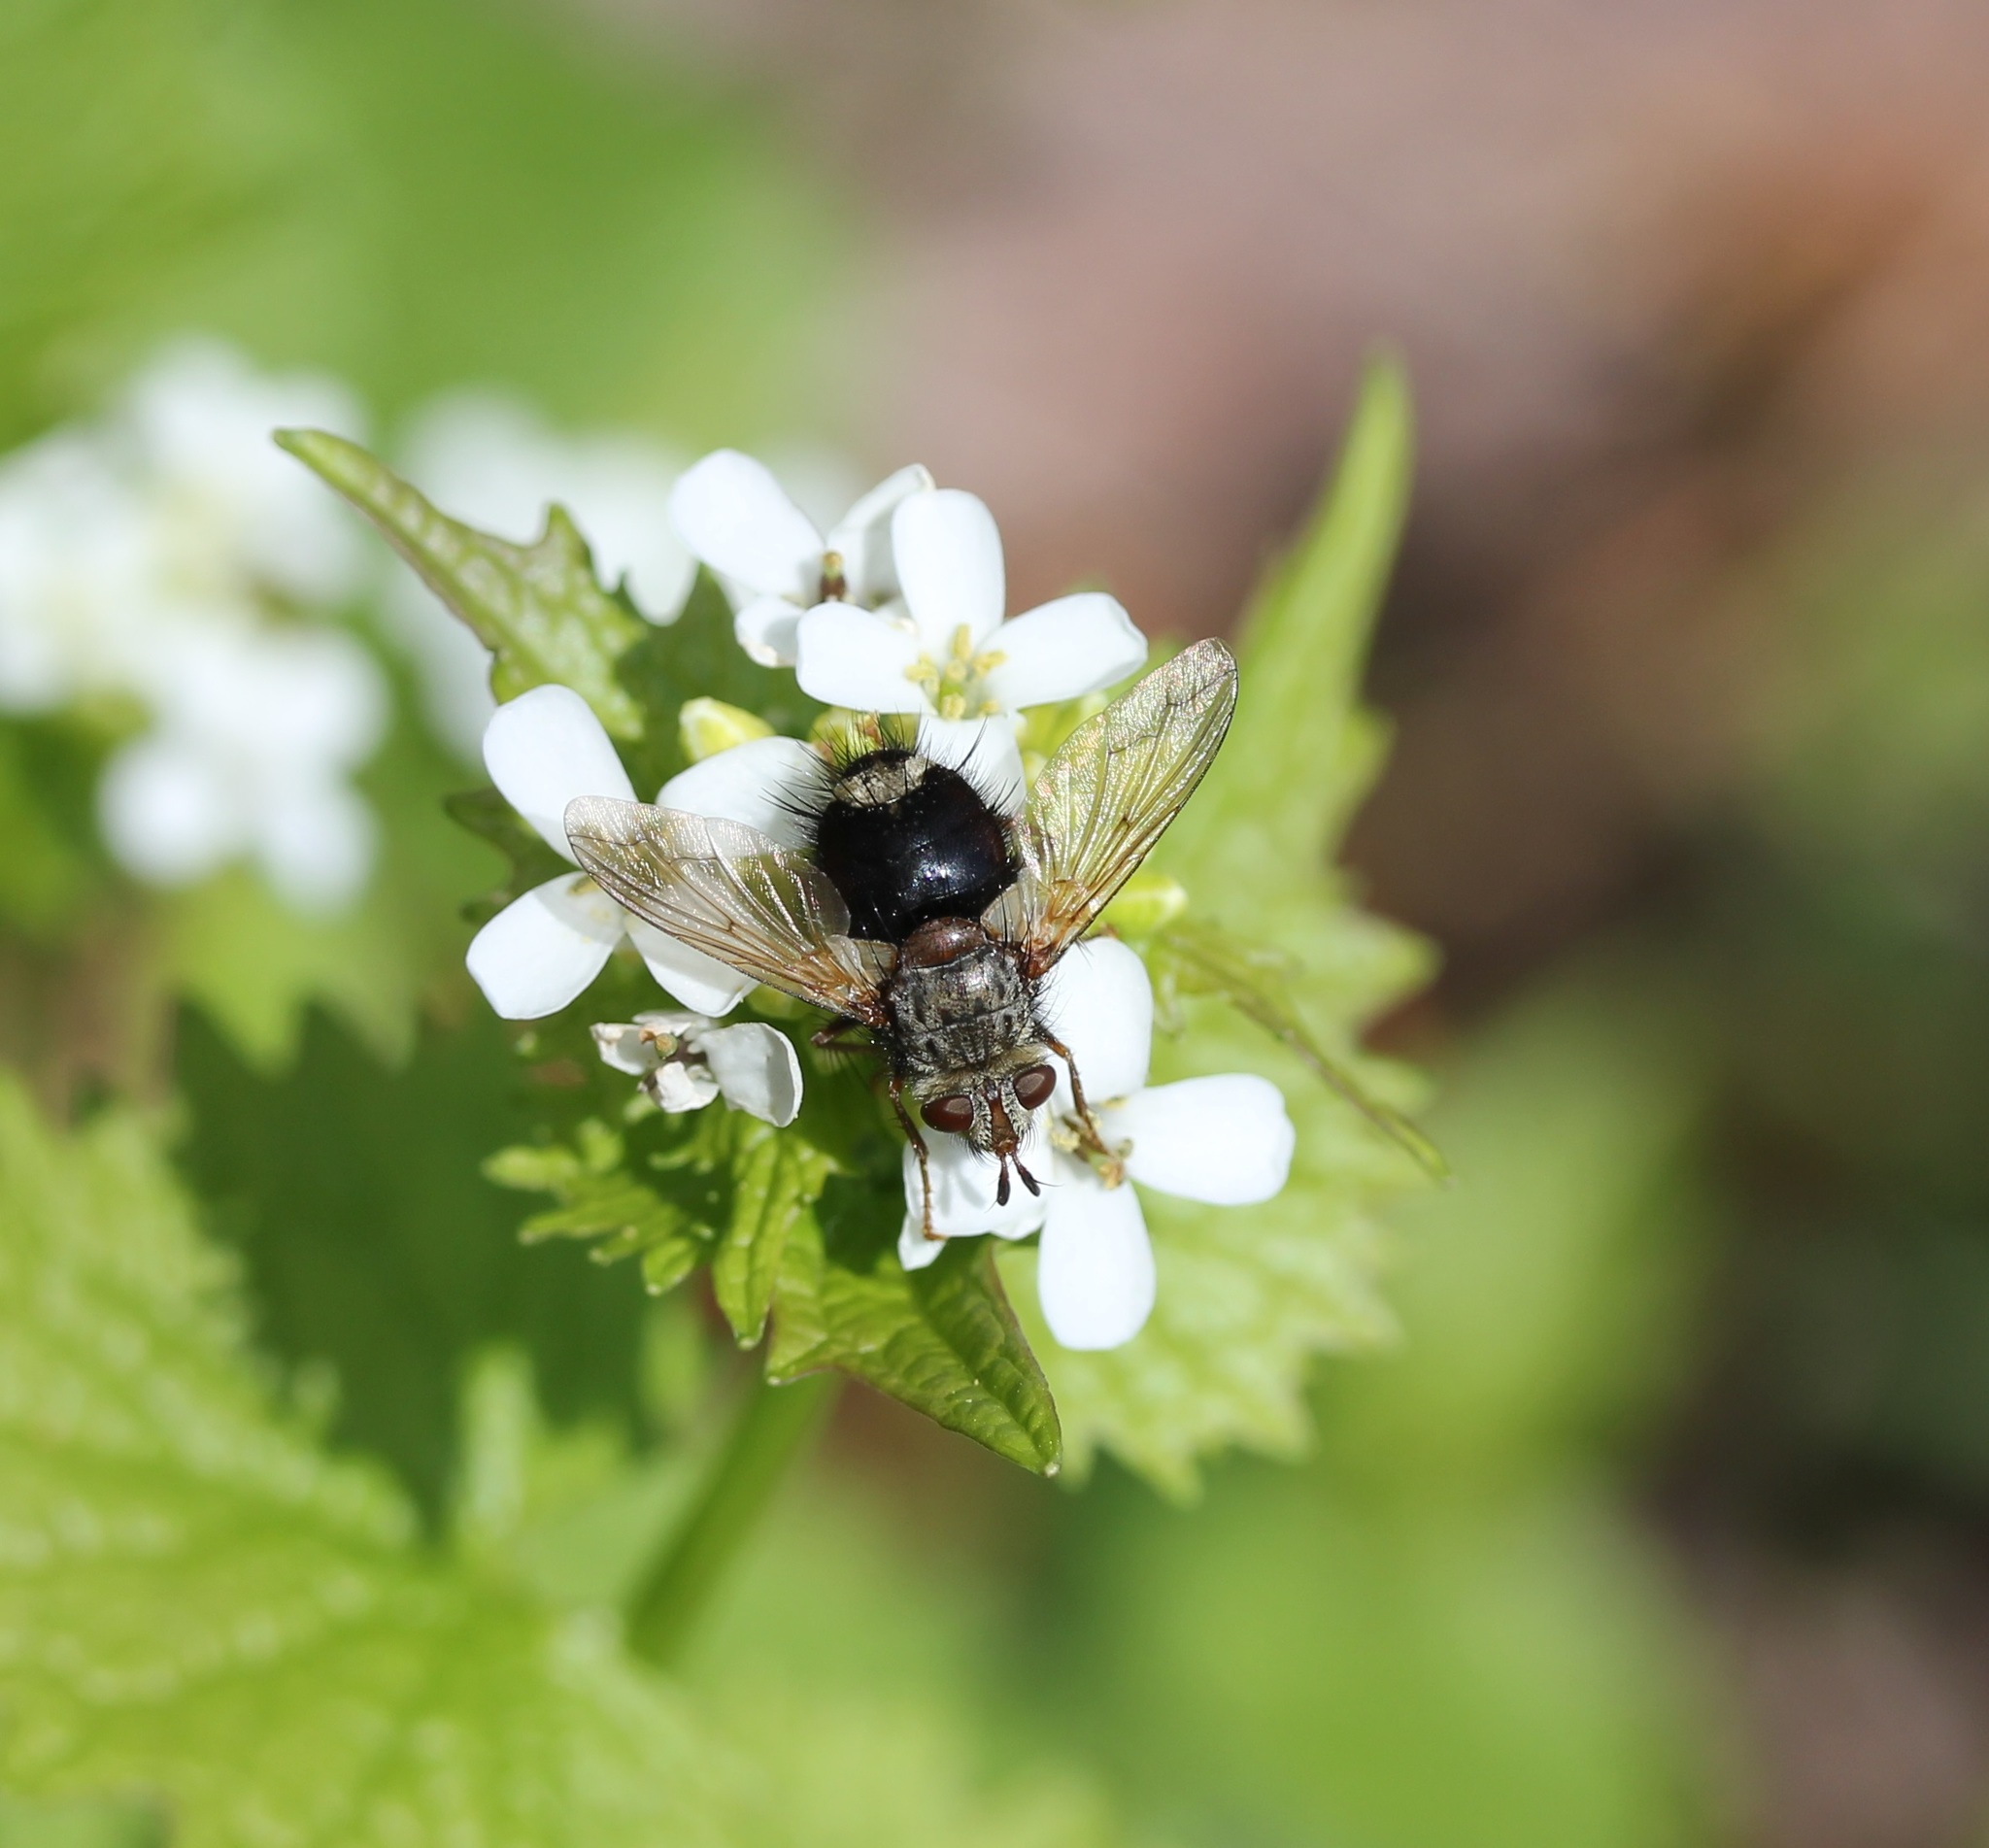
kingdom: Animalia
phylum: Arthropoda
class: Insecta
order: Diptera
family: Tachinidae
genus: Epalpus
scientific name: Epalpus signifer
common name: Early tachinid fly
